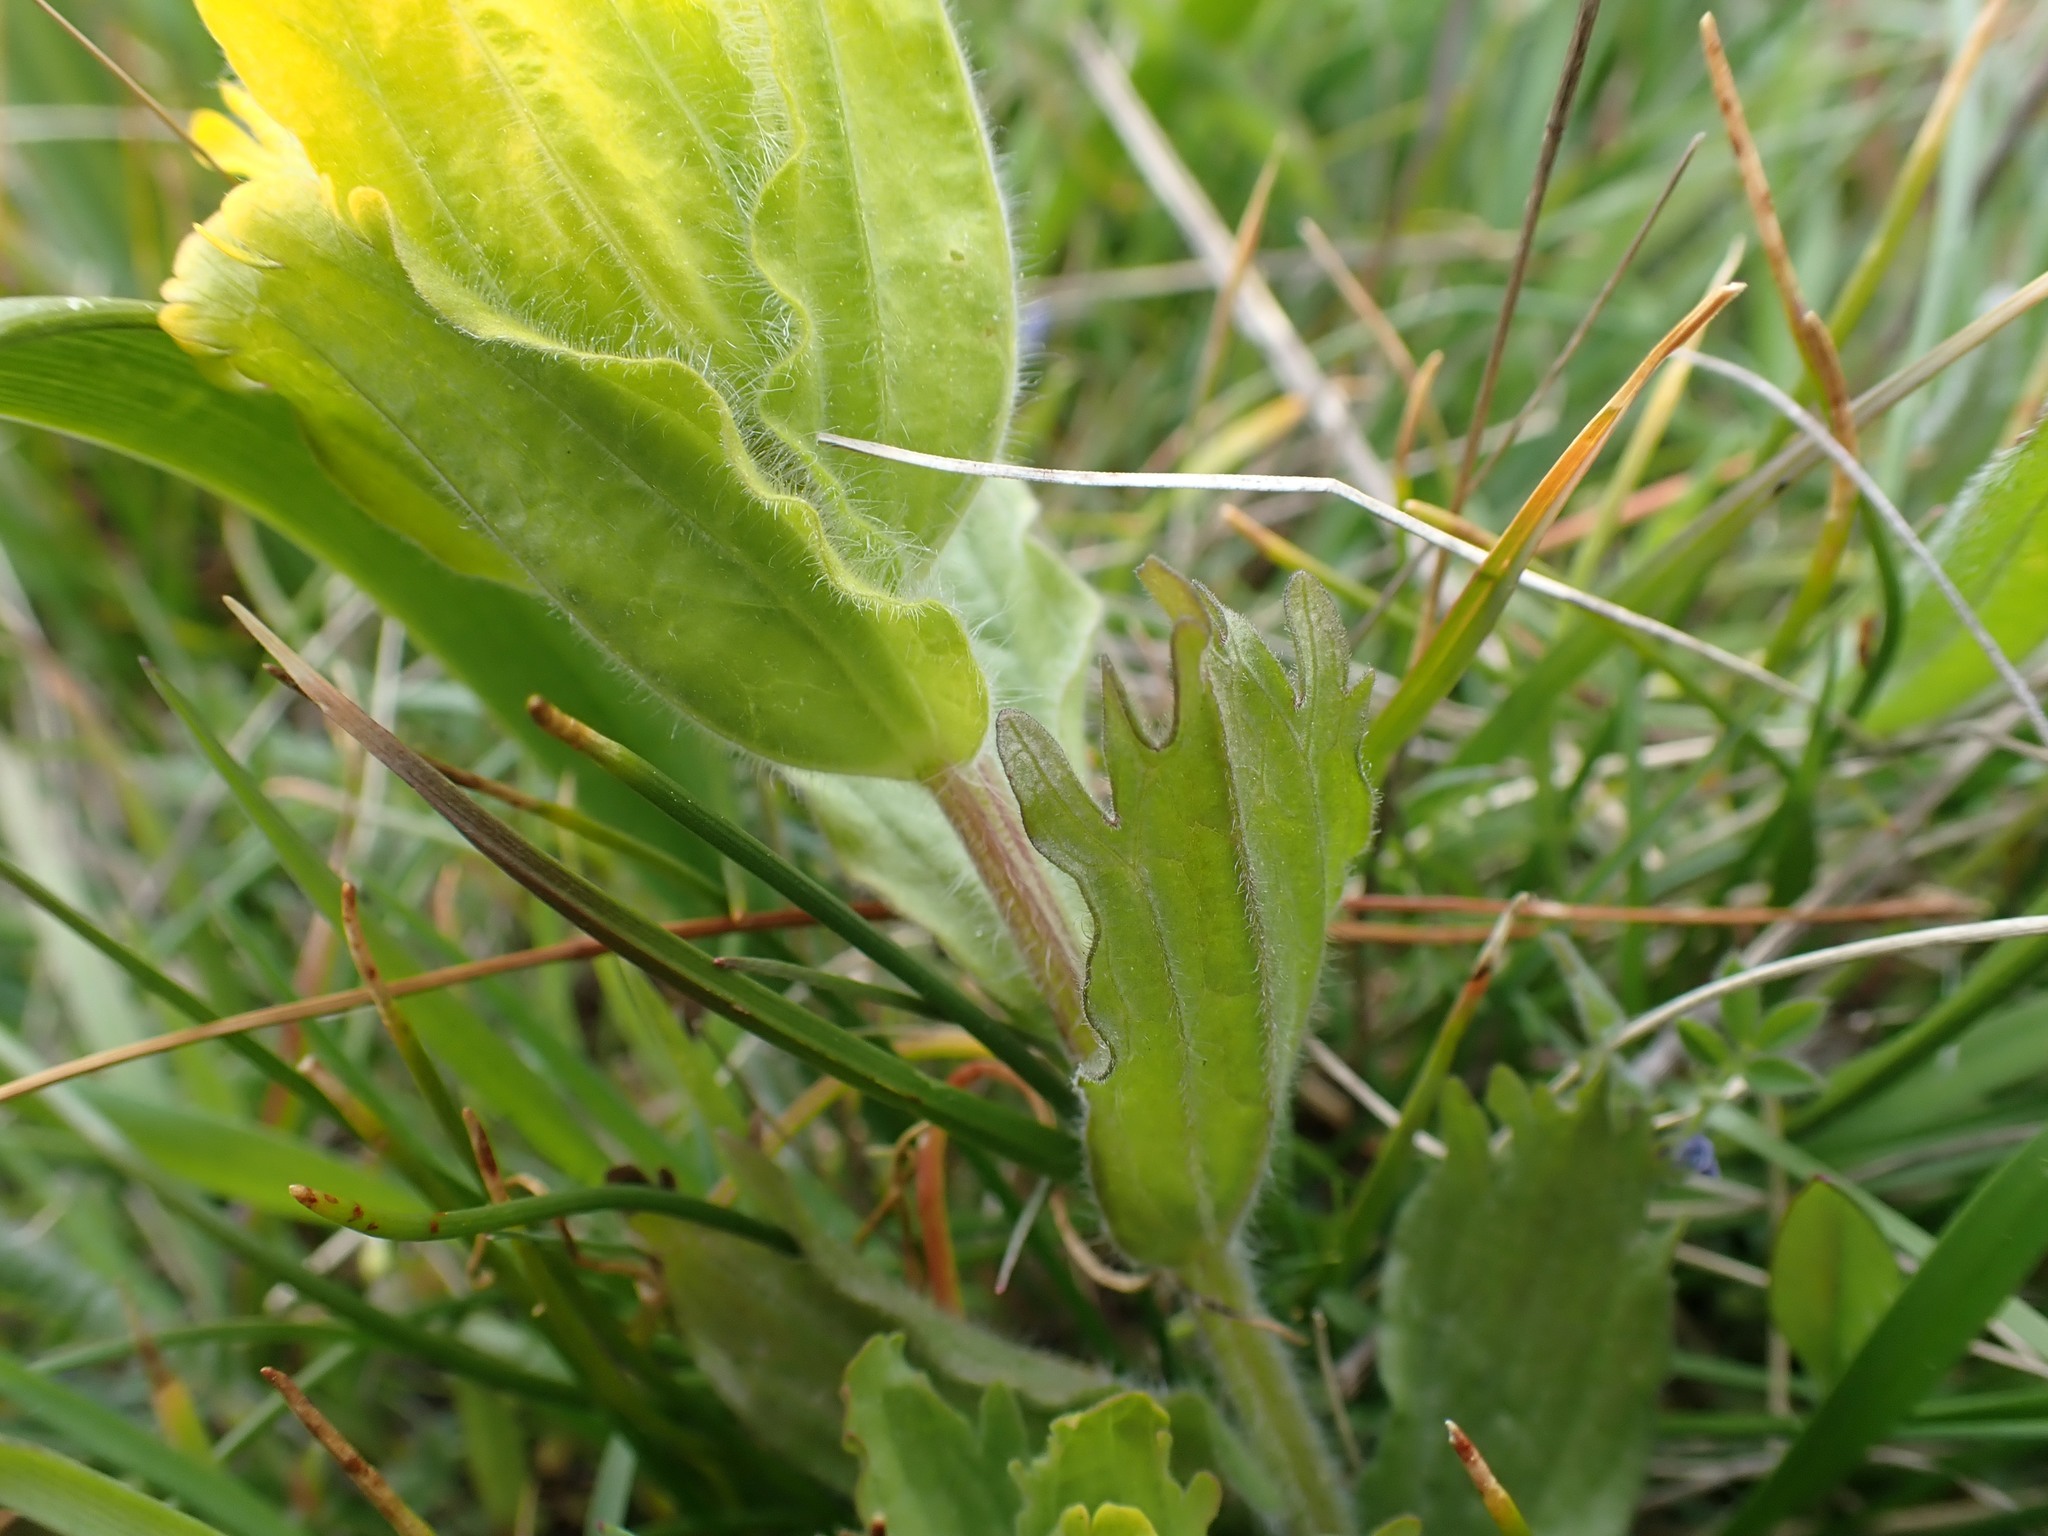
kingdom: Plantae
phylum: Tracheophyta
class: Magnoliopsida
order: Lamiales
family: Orobanchaceae
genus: Castilleja
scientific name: Castilleja levisecta
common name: Golden paintbrush
